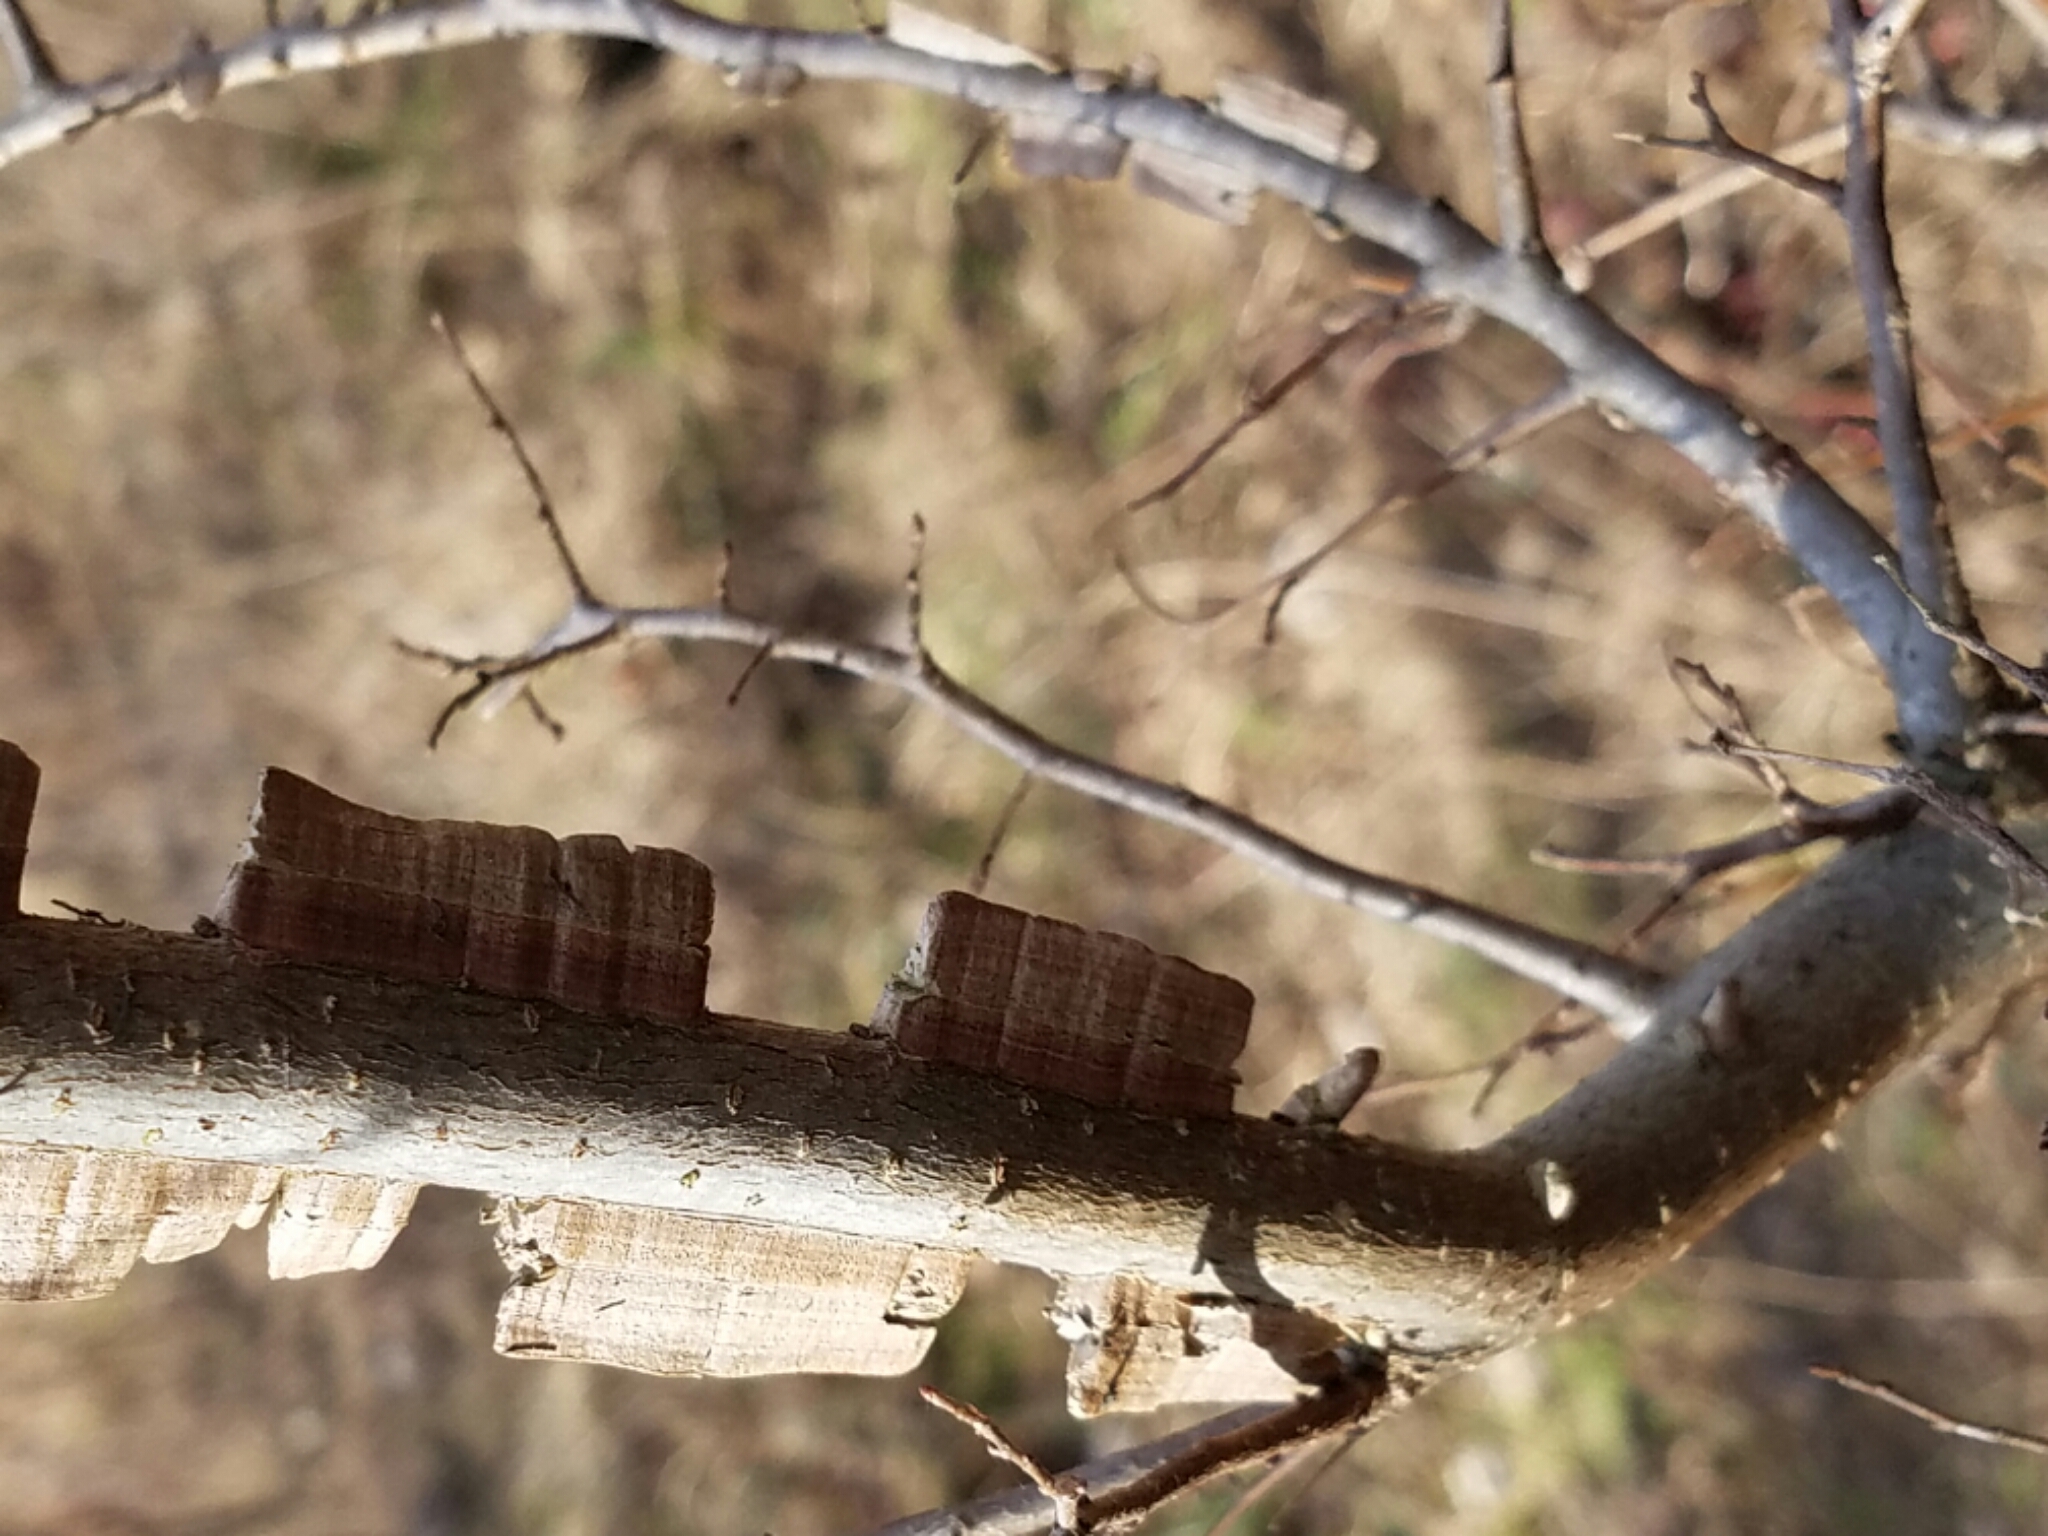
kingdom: Plantae
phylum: Tracheophyta
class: Magnoliopsida
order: Rosales
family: Ulmaceae
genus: Ulmus
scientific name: Ulmus crassifolia
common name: Basket elm
